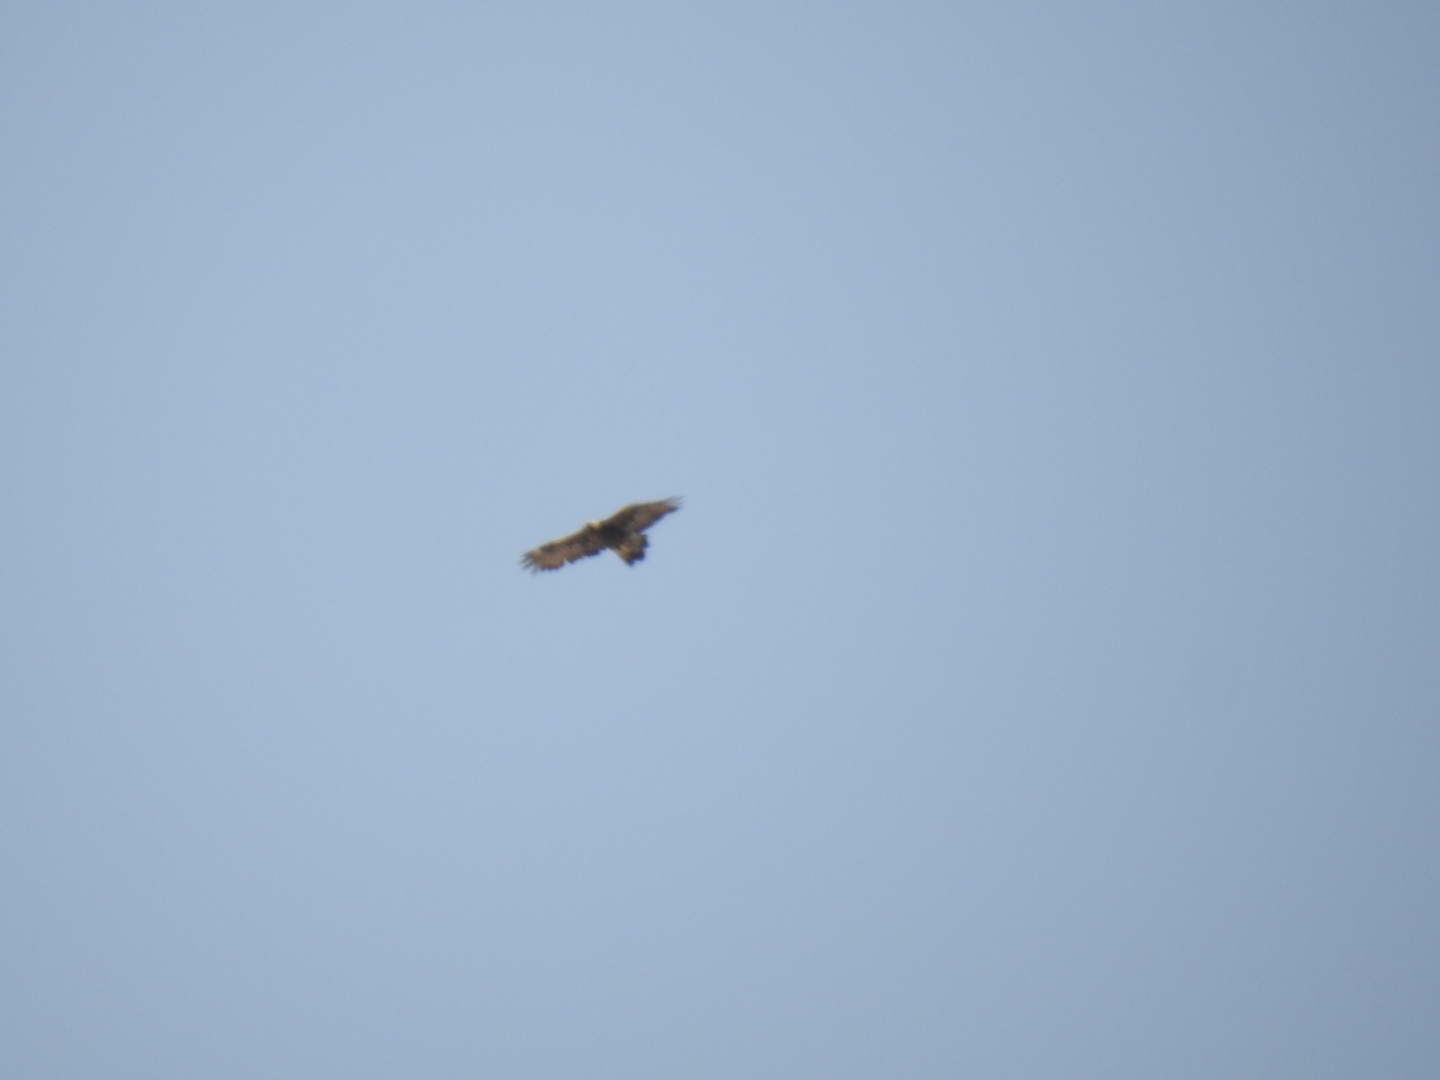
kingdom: Animalia
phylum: Chordata
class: Aves
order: Accipitriformes
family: Accipitridae
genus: Aquila
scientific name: Aquila chrysaetos
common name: Golden eagle
